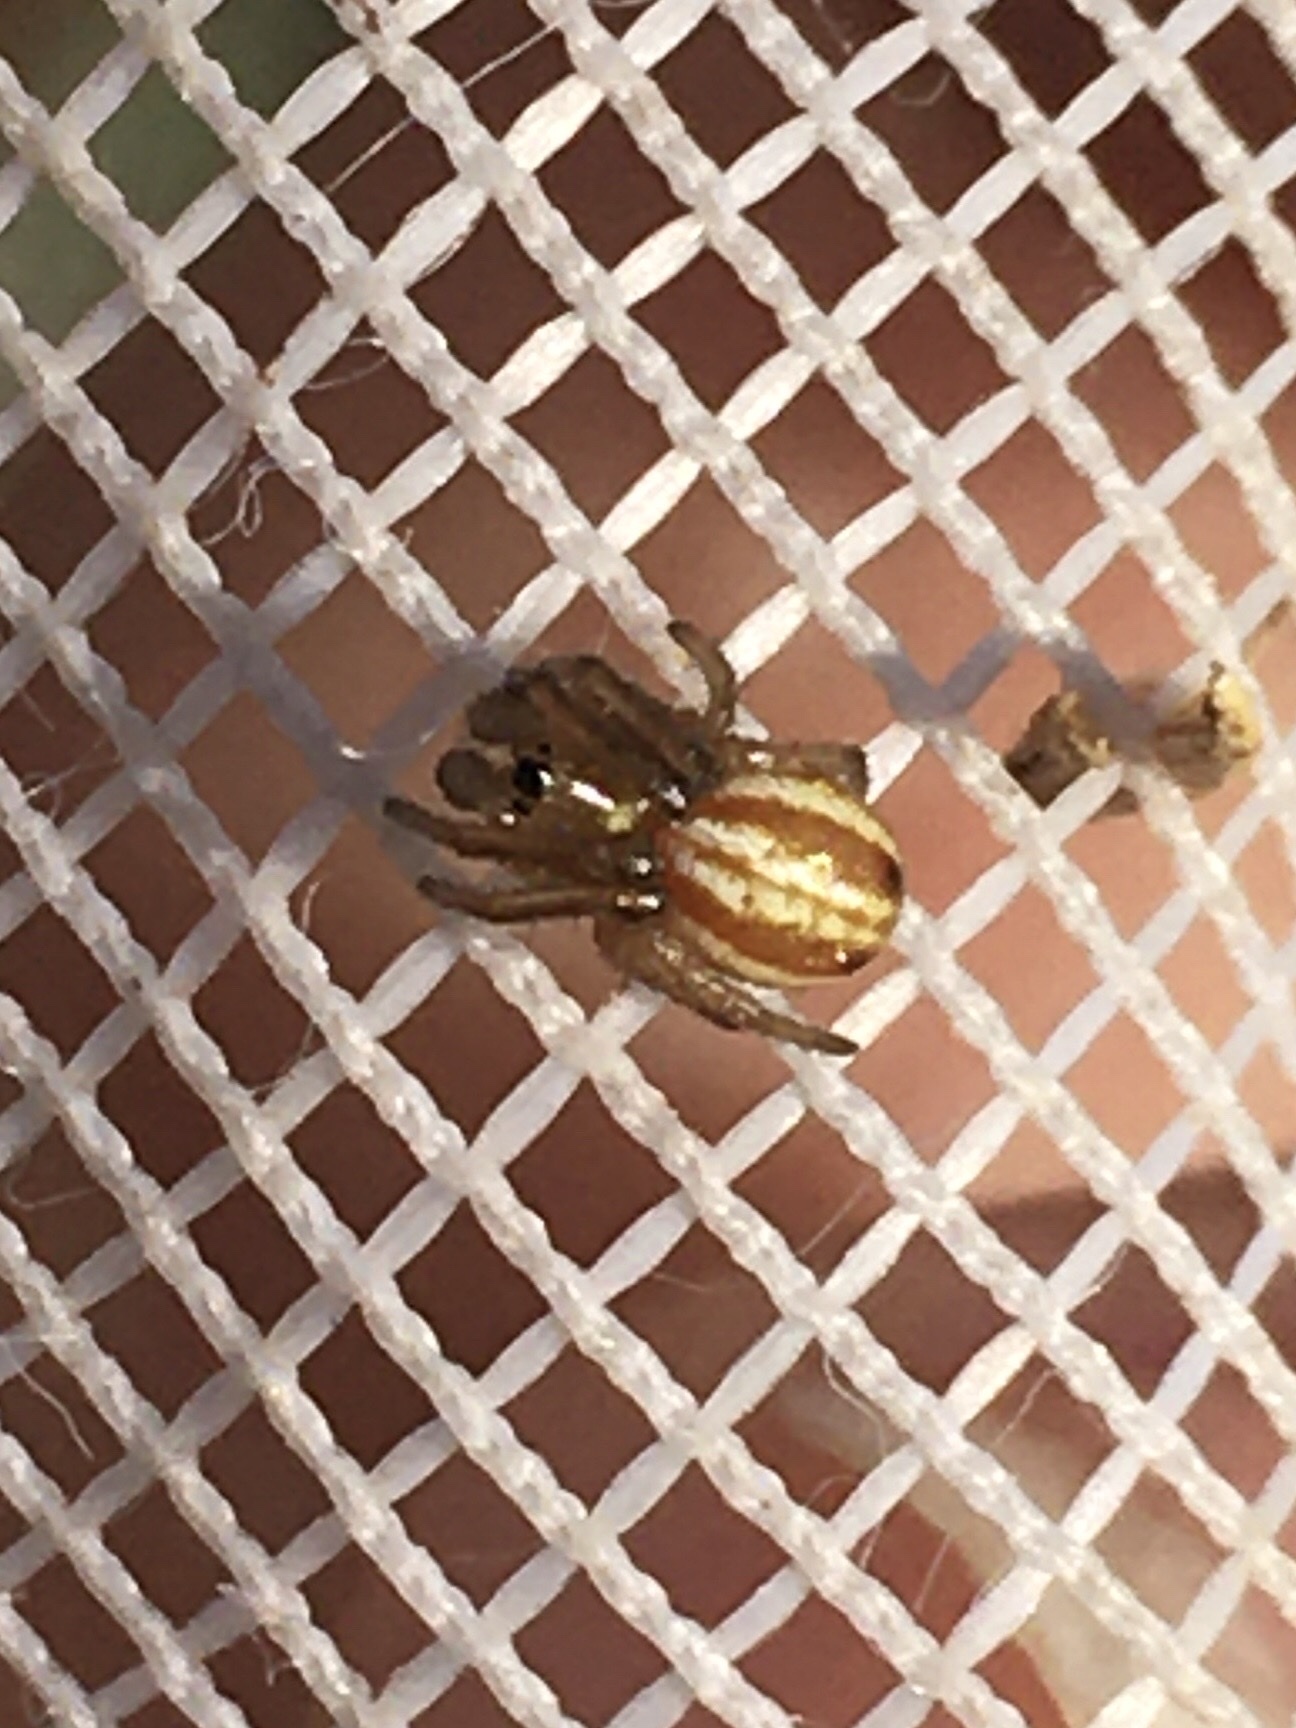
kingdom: Animalia
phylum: Arthropoda
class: Arachnida
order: Araneae
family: Araneidae
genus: Araneus
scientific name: Araneus pratensis
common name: Openfield orbweaver
